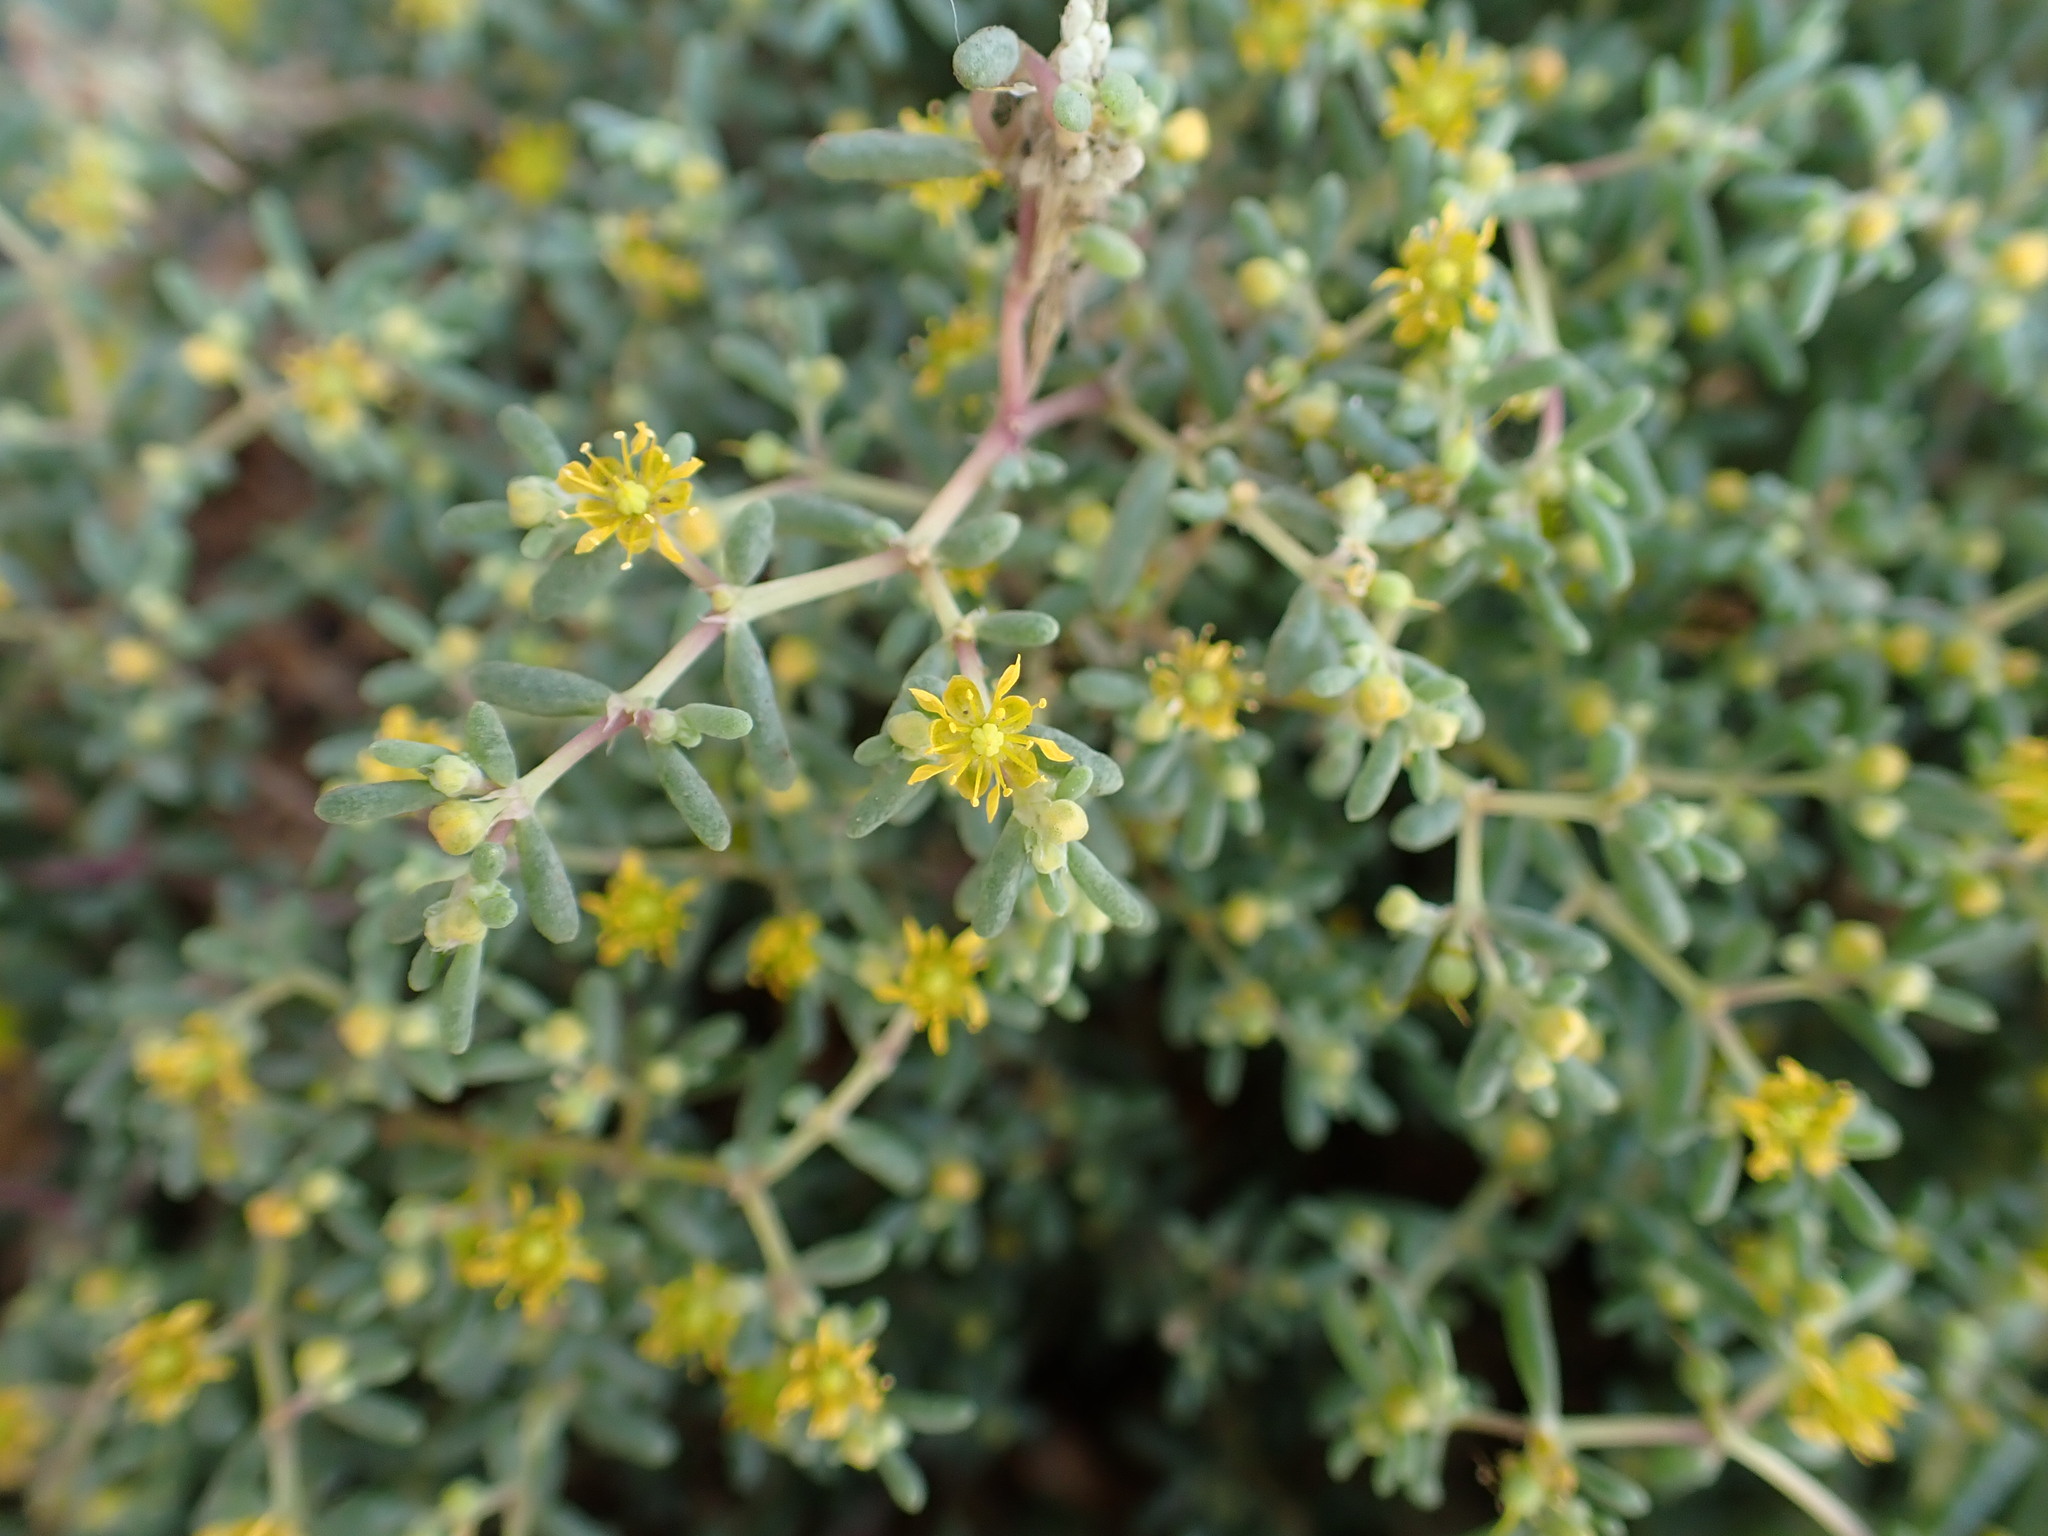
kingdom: Plantae
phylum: Tracheophyta
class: Magnoliopsida
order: Zygophyllales
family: Zygophyllaceae
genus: Tetraena
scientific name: Tetraena simplex
